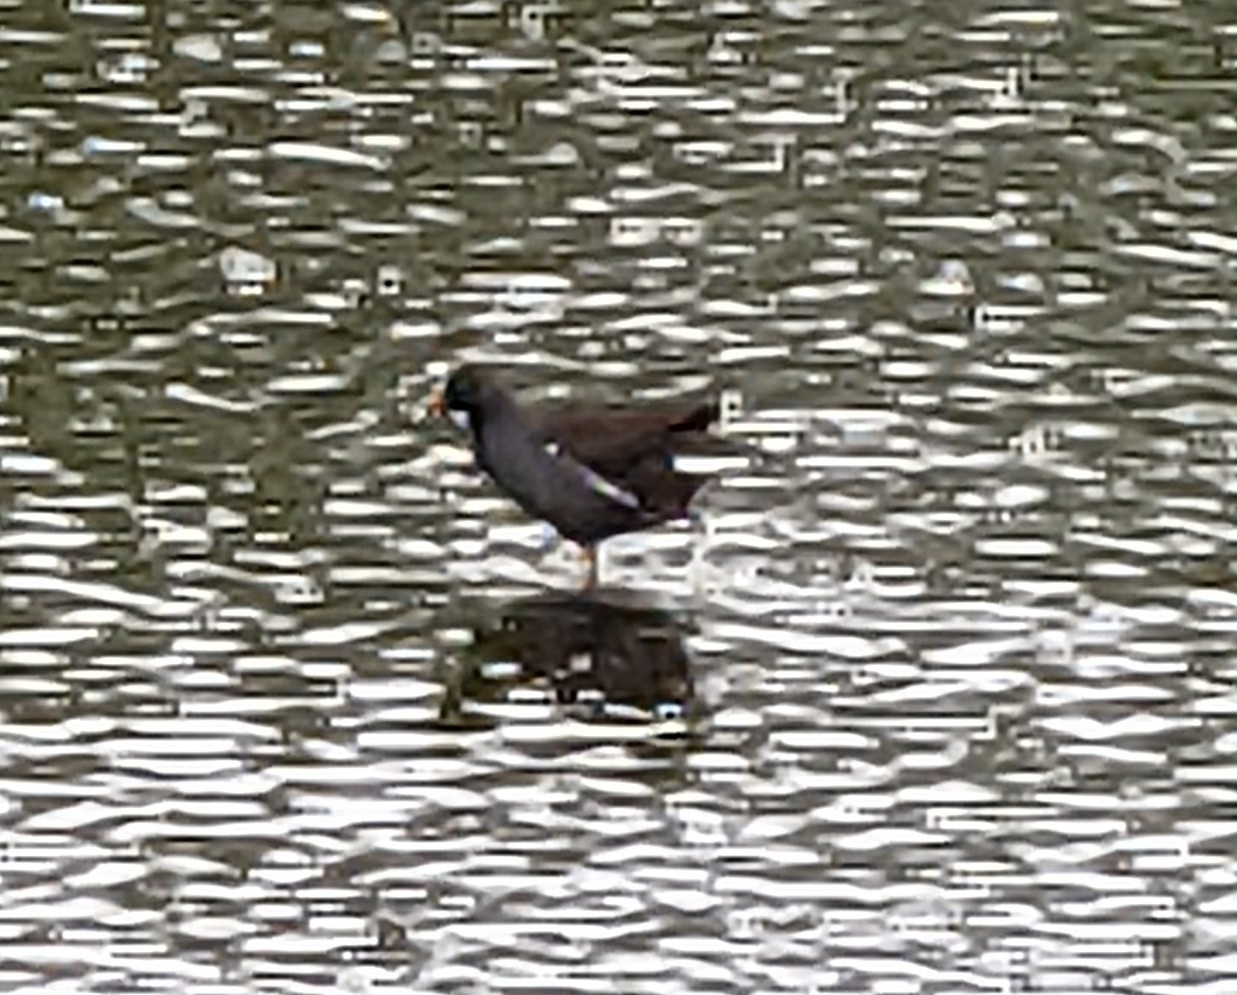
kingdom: Animalia
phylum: Chordata
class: Aves
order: Gruiformes
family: Rallidae
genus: Gallinula
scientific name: Gallinula chloropus
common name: Common moorhen
